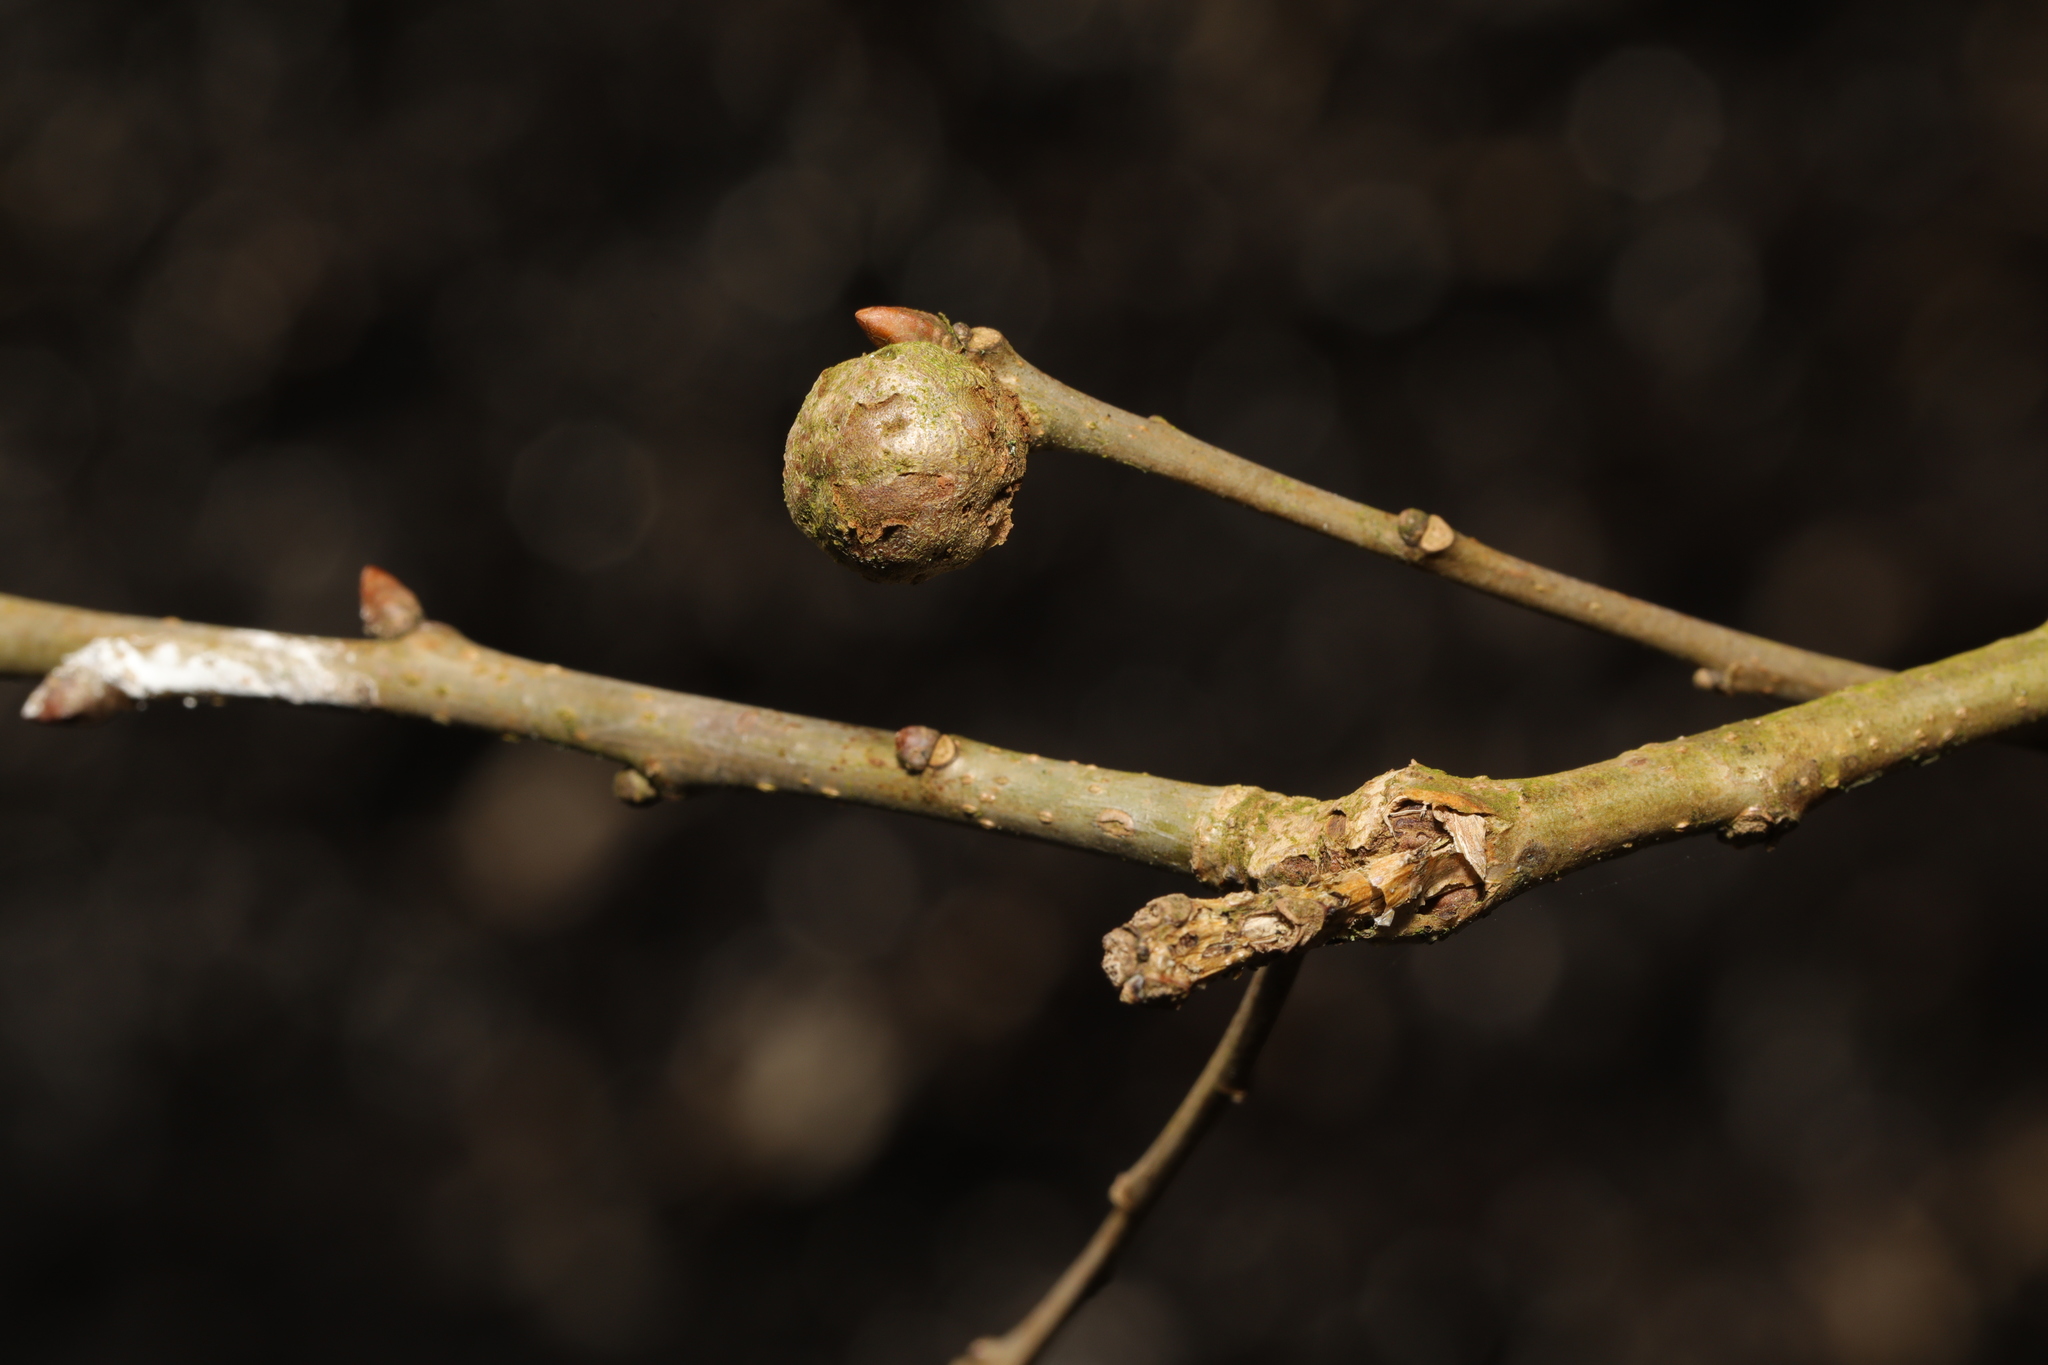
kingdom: Animalia
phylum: Arthropoda
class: Insecta
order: Hymenoptera
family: Cynipidae
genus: Andricus
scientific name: Andricus lignicolus
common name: Cola-nut gall
